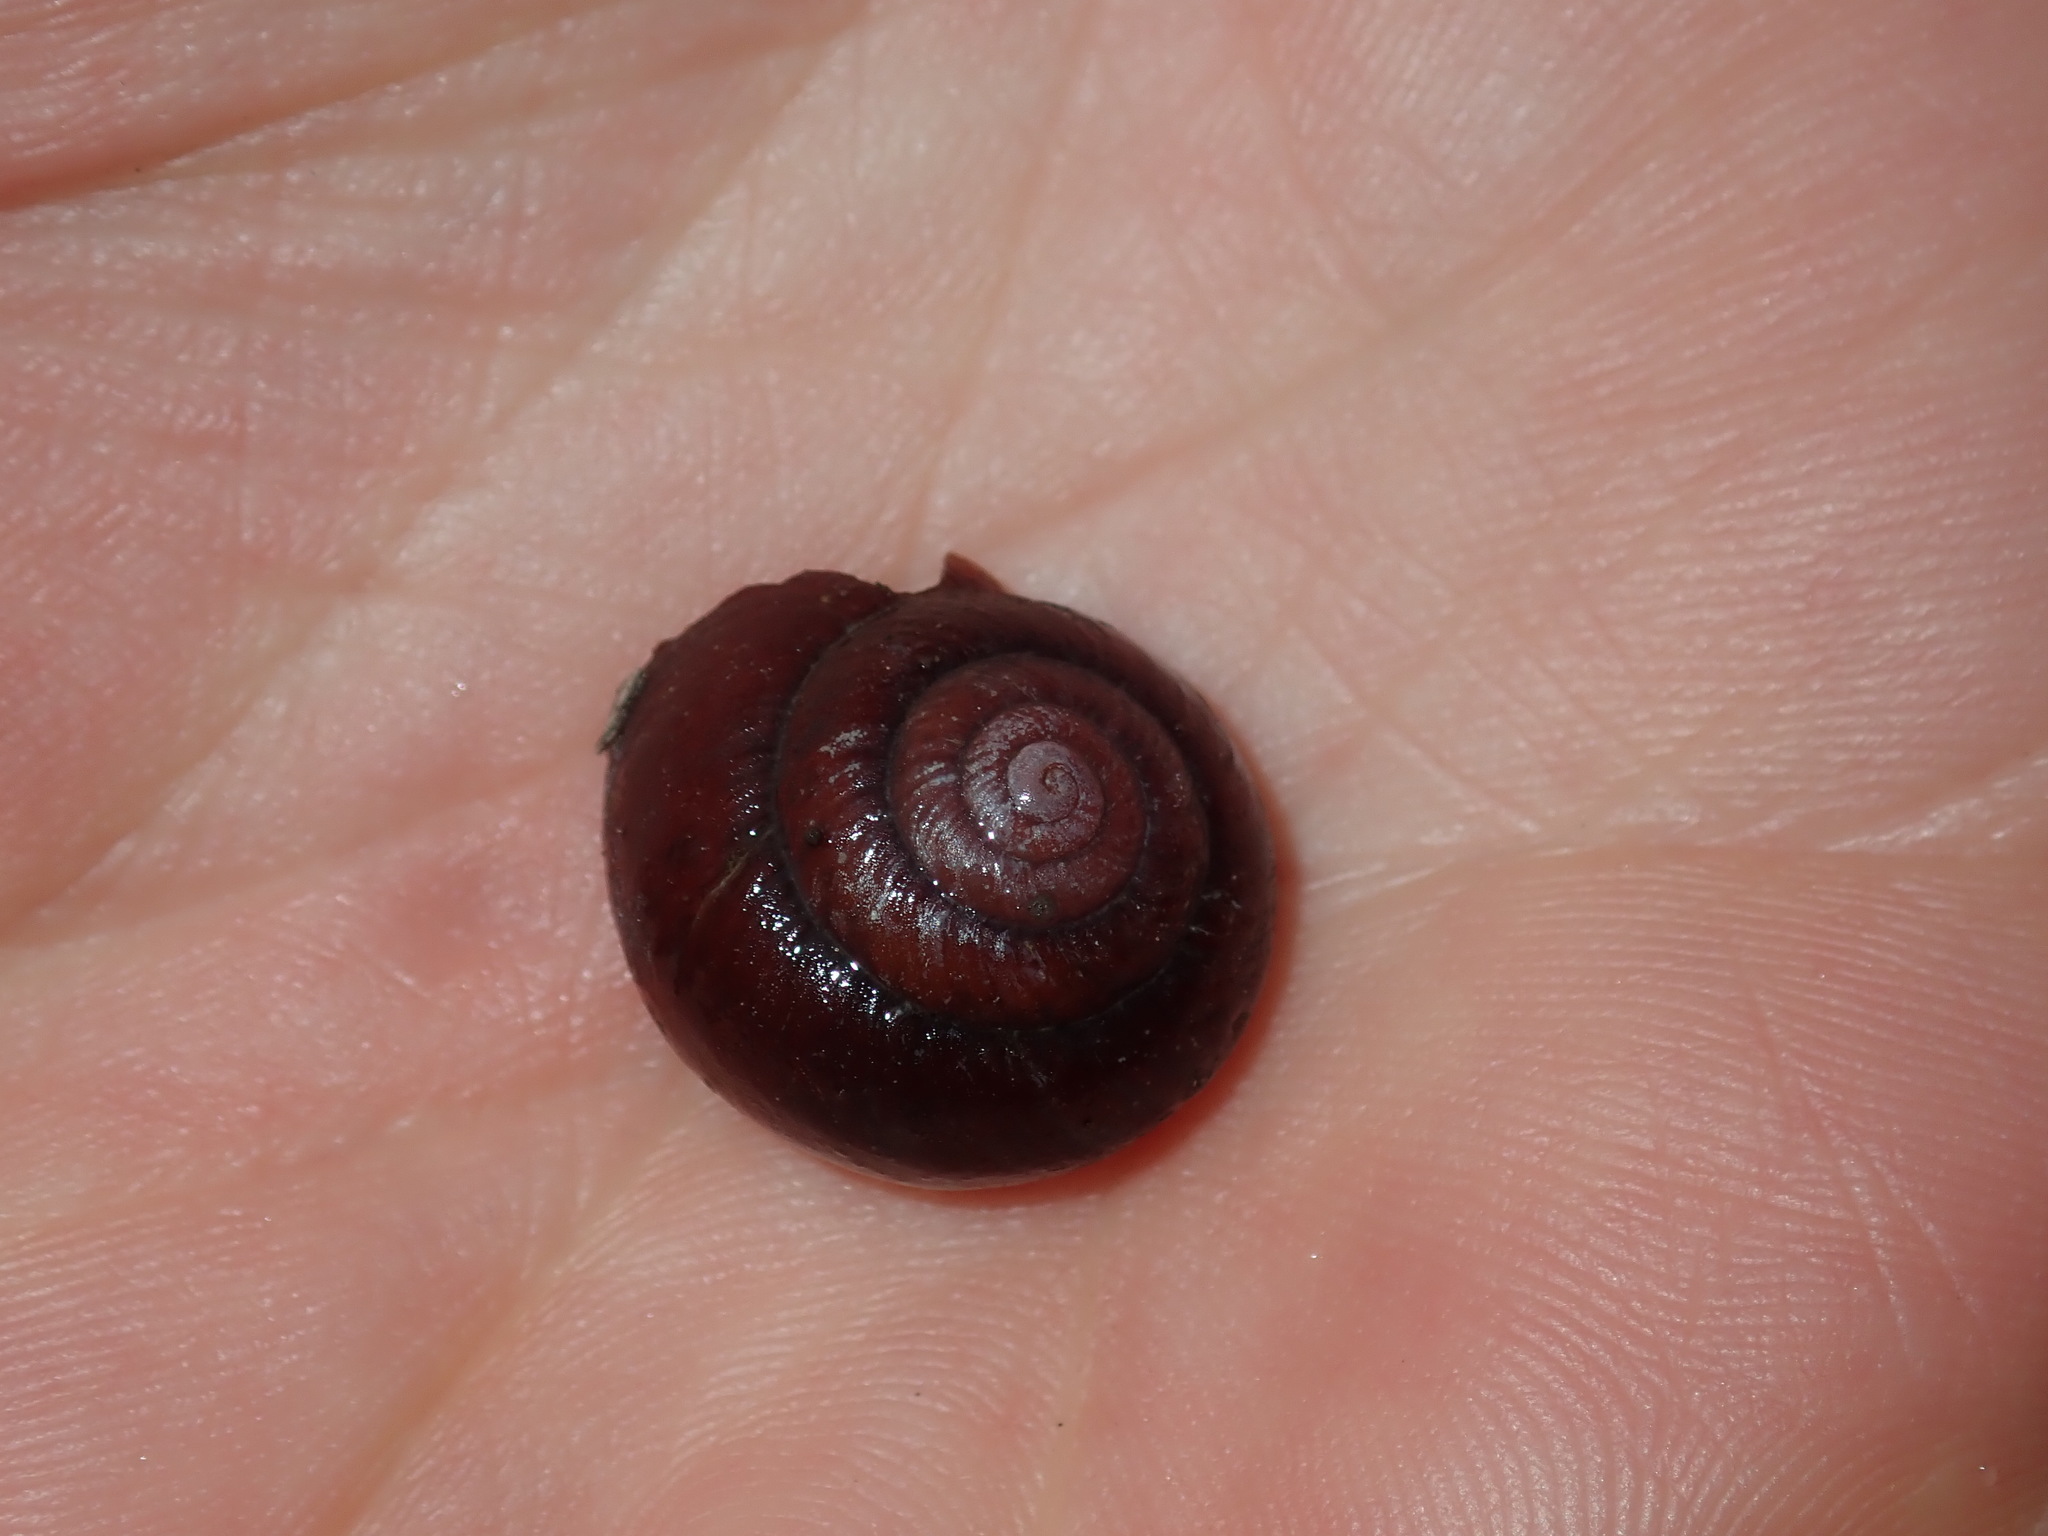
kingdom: Animalia
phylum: Mollusca
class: Gastropoda
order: Stylommatophora
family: Camaenidae
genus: Sauroconcha
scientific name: Sauroconcha sheai
